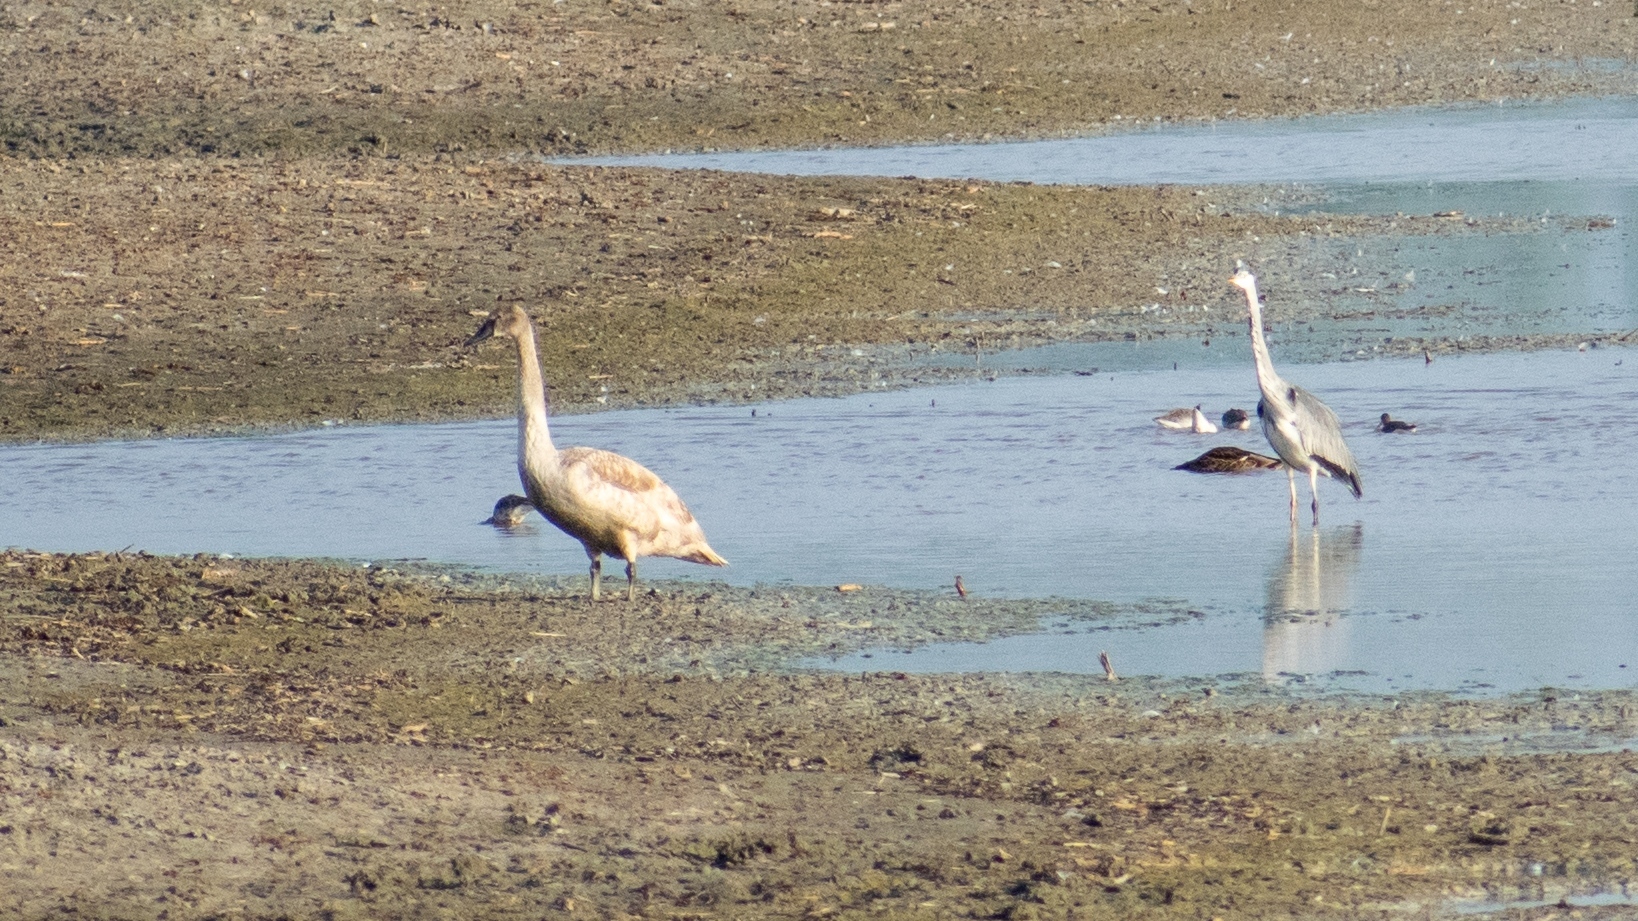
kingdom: Animalia
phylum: Chordata
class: Aves
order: Pelecaniformes
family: Ardeidae
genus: Ardea
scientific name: Ardea cinerea
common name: Grey heron
